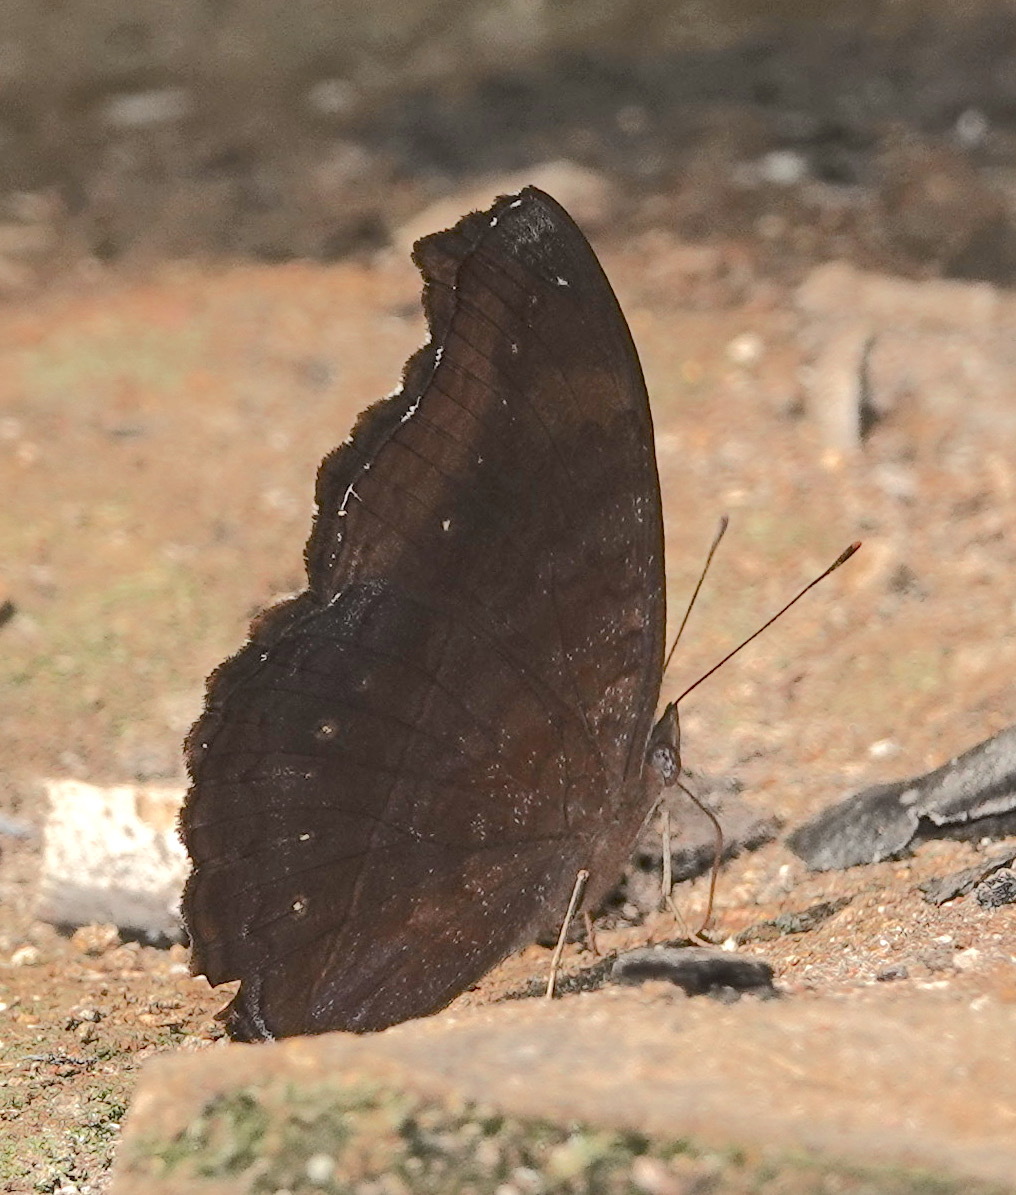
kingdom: Animalia
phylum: Arthropoda
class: Insecta
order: Lepidoptera
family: Nymphalidae
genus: Junonia
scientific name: Junonia iphita
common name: Chocolate pansy
